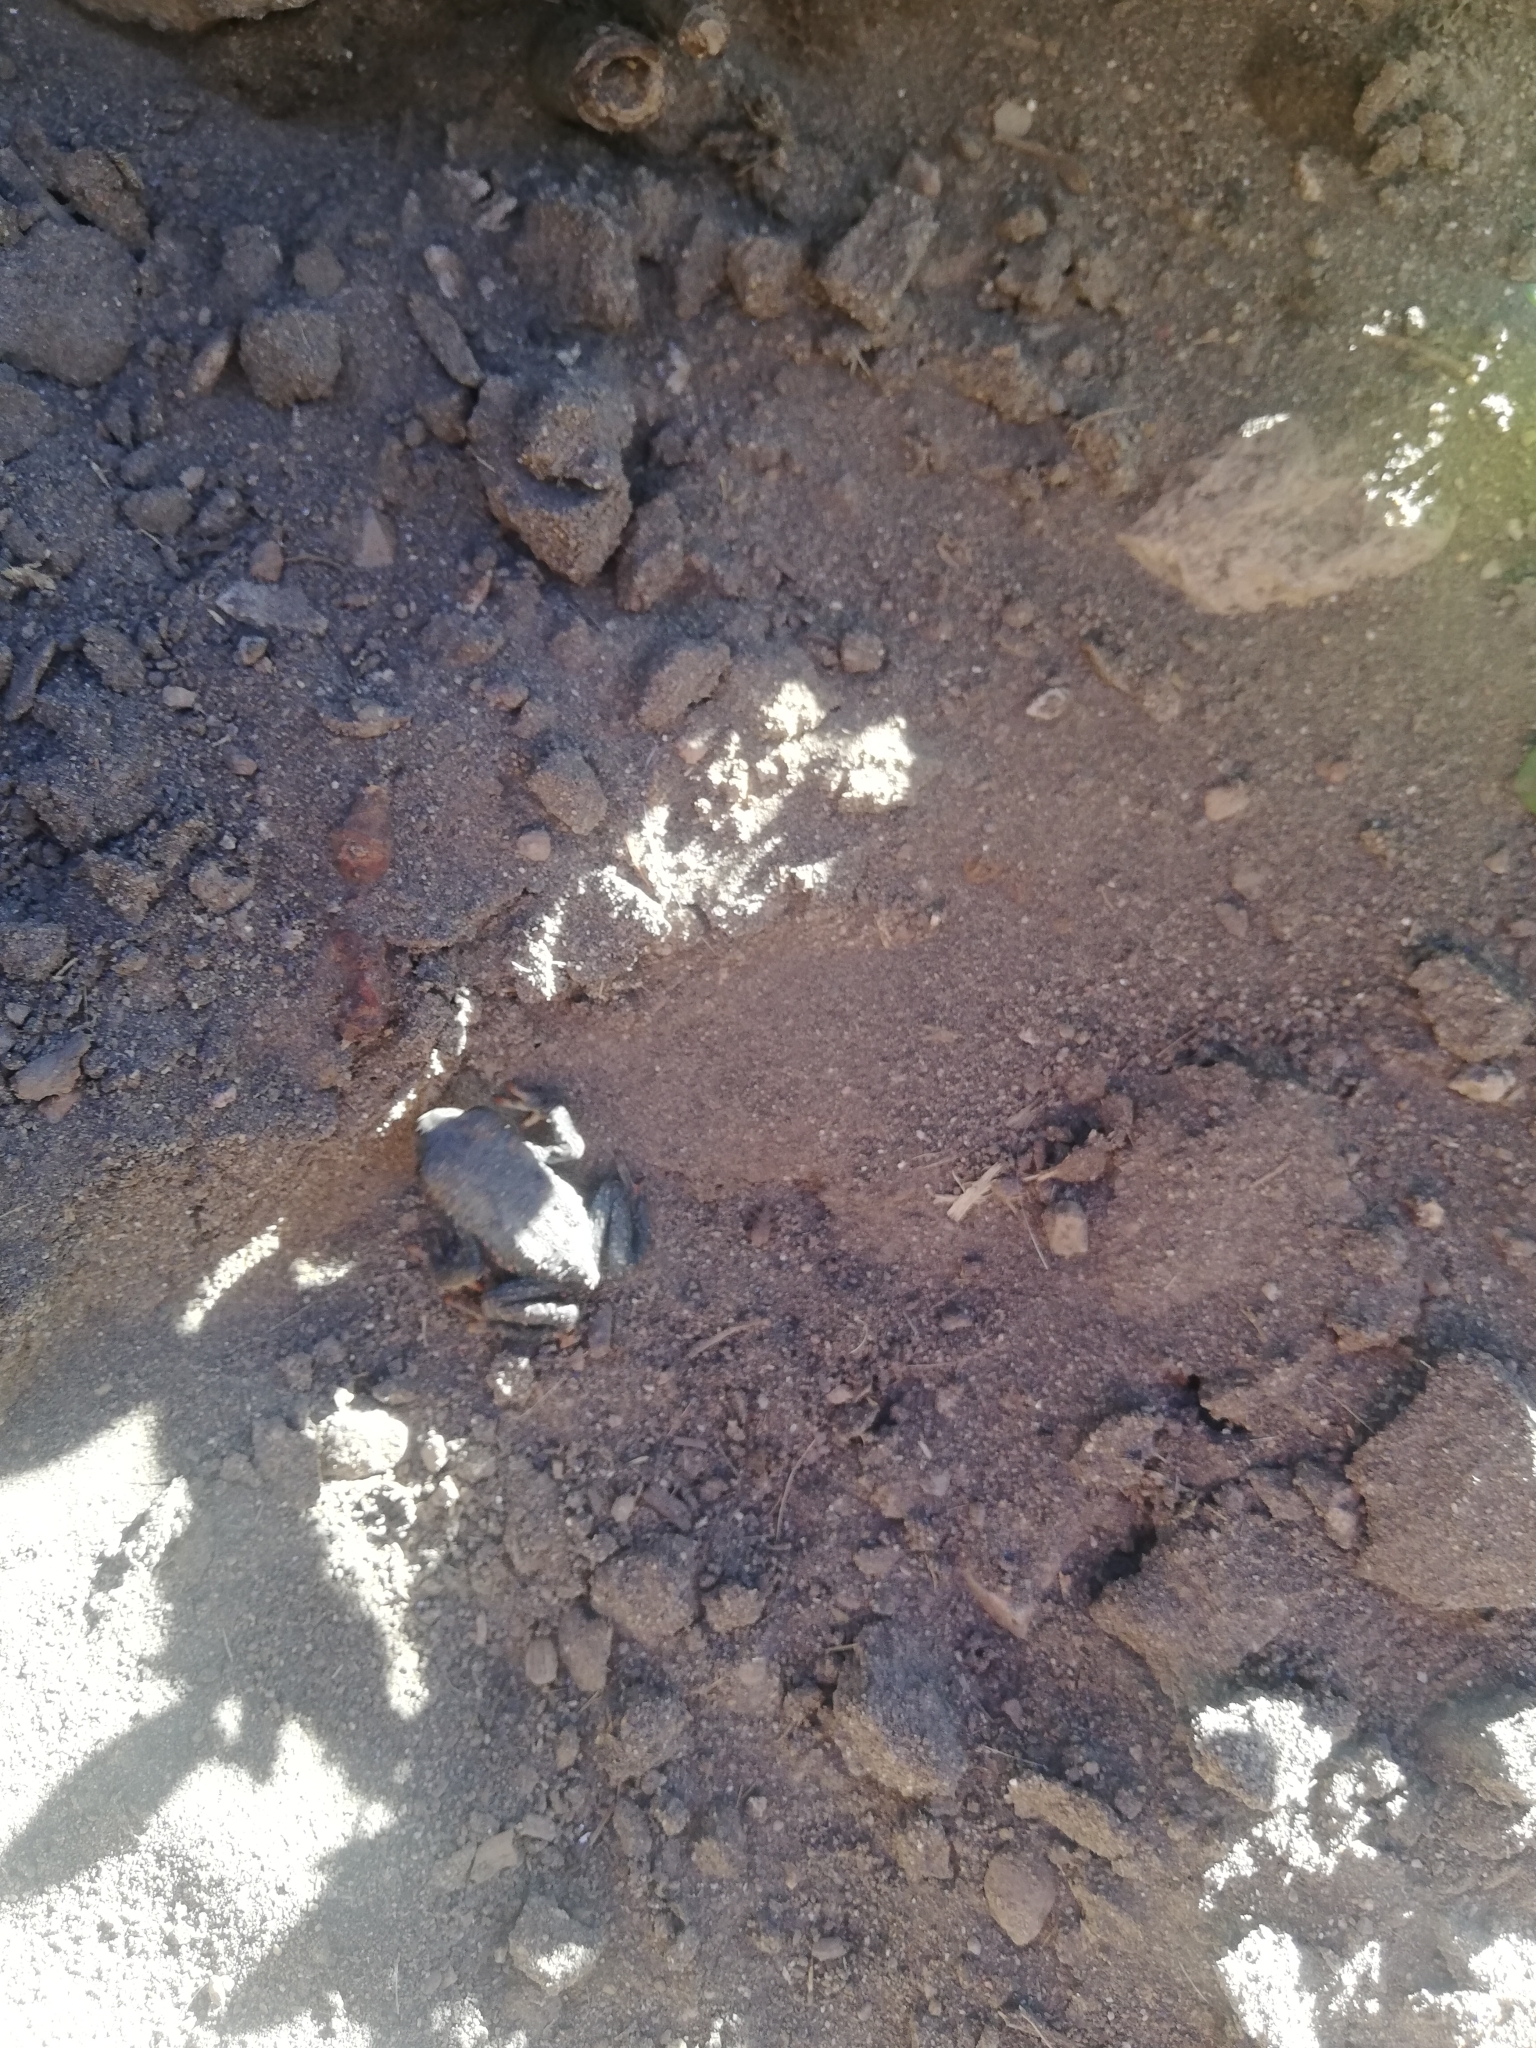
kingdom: Animalia
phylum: Chordata
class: Amphibia
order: Anura
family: Bufonidae
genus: Rhinella
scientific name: Rhinella spinulosa
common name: Warty toad
